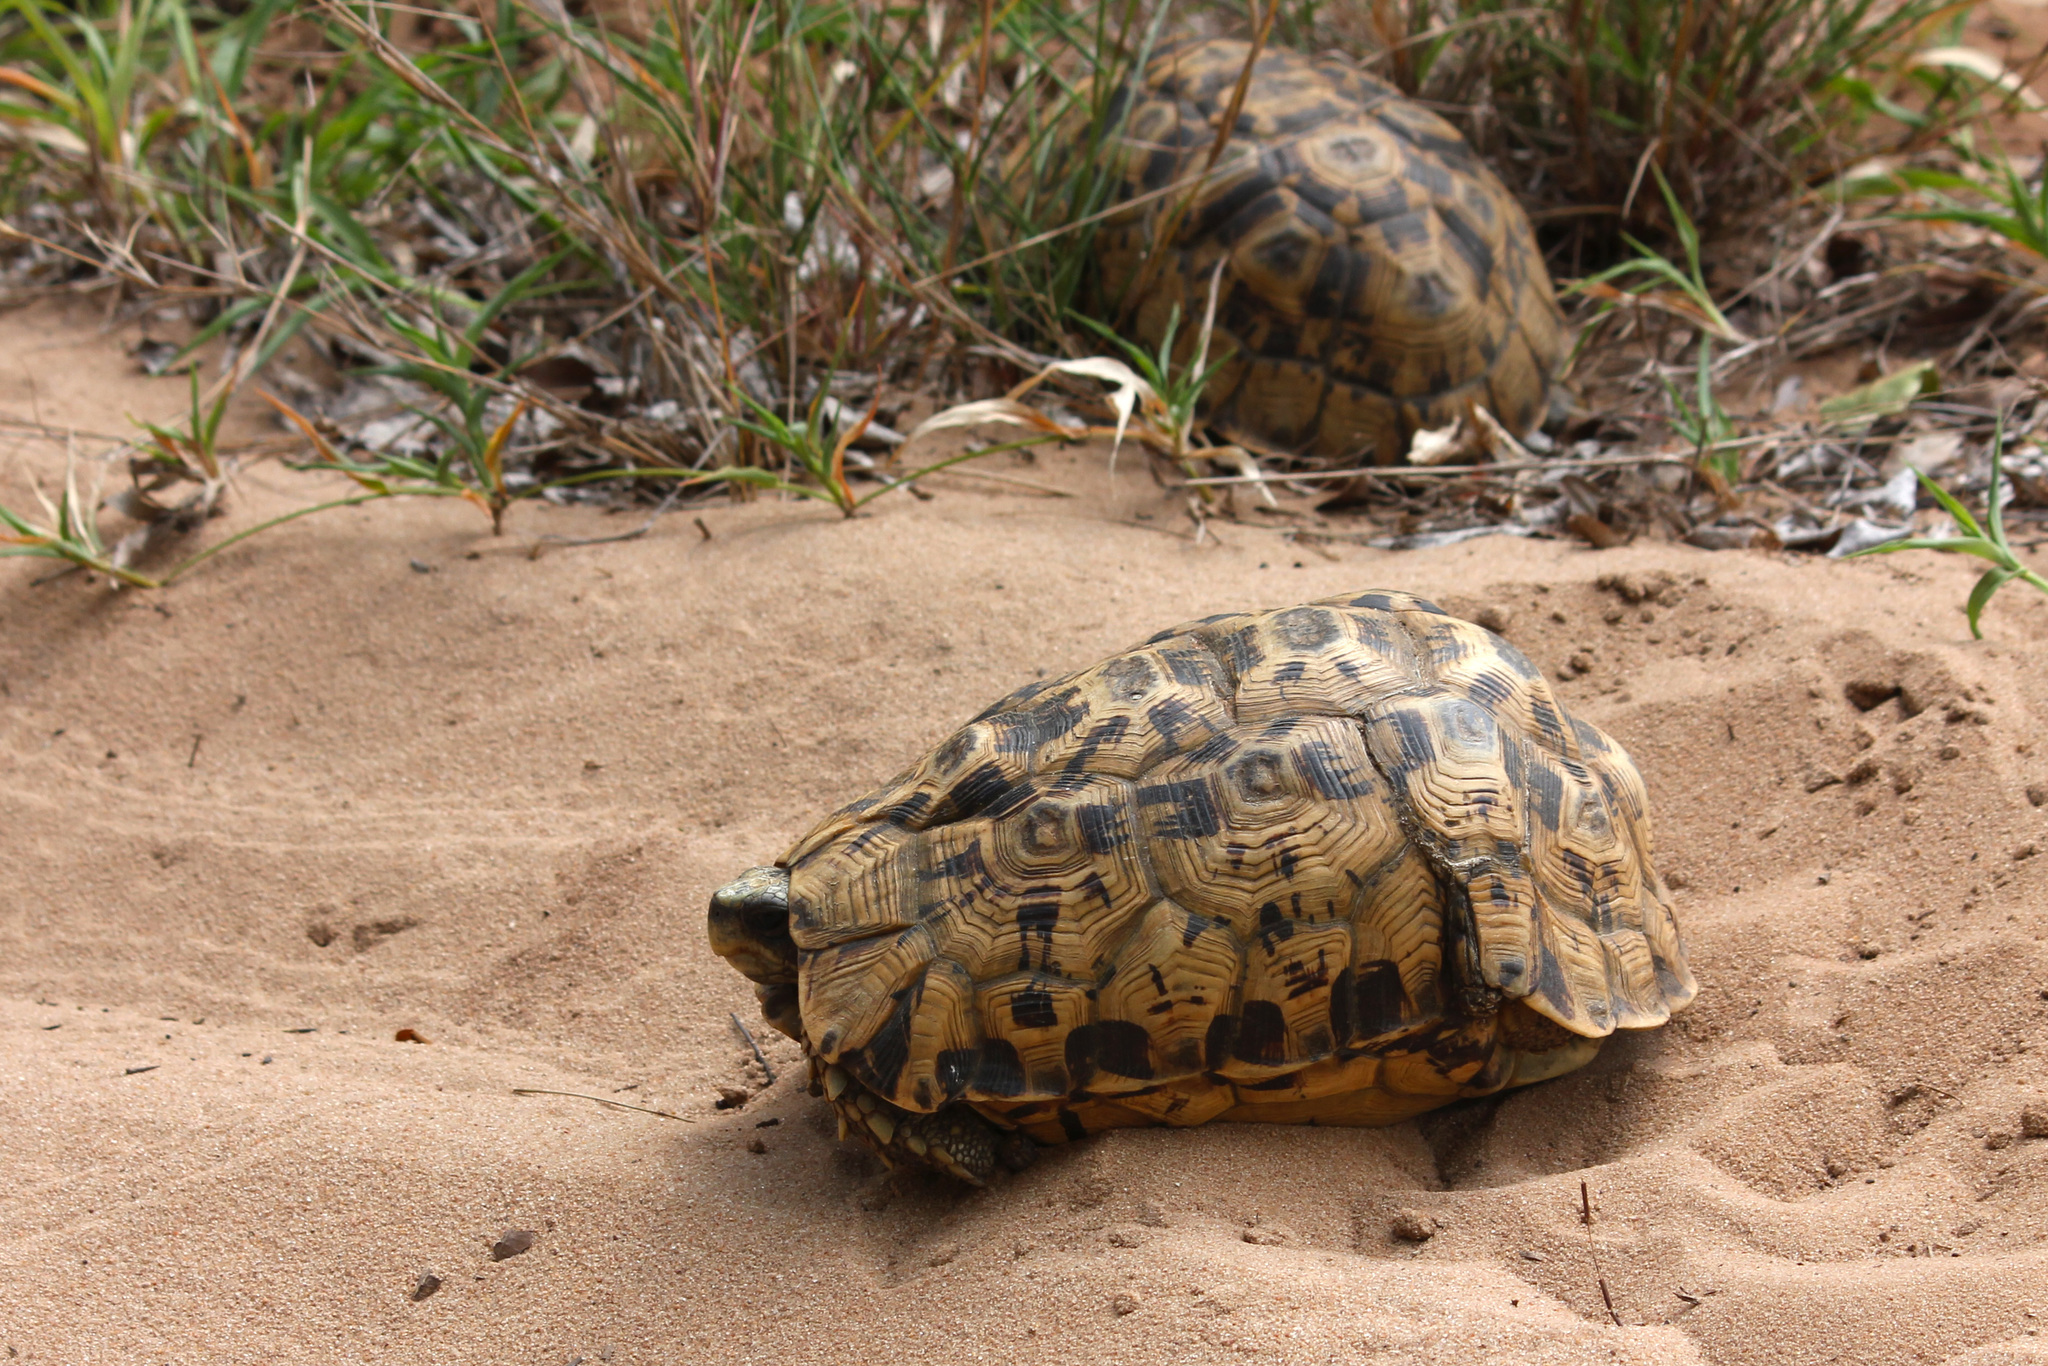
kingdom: Animalia
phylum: Chordata
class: Testudines
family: Testudinidae
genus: Kinixys
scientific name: Kinixys zombensis
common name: Southeastern hinge-back tortoise
